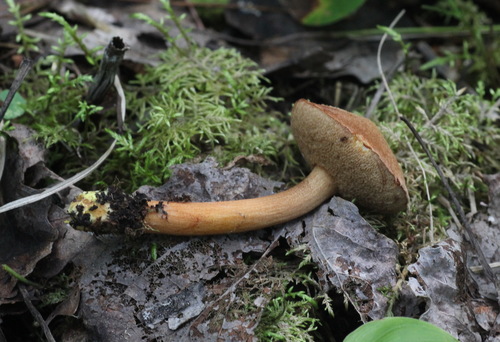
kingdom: Fungi
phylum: Basidiomycota
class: Agaricomycetes
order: Boletales
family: Boletaceae
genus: Chalciporus
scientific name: Chalciporus piperatus
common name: Peppery bolete
